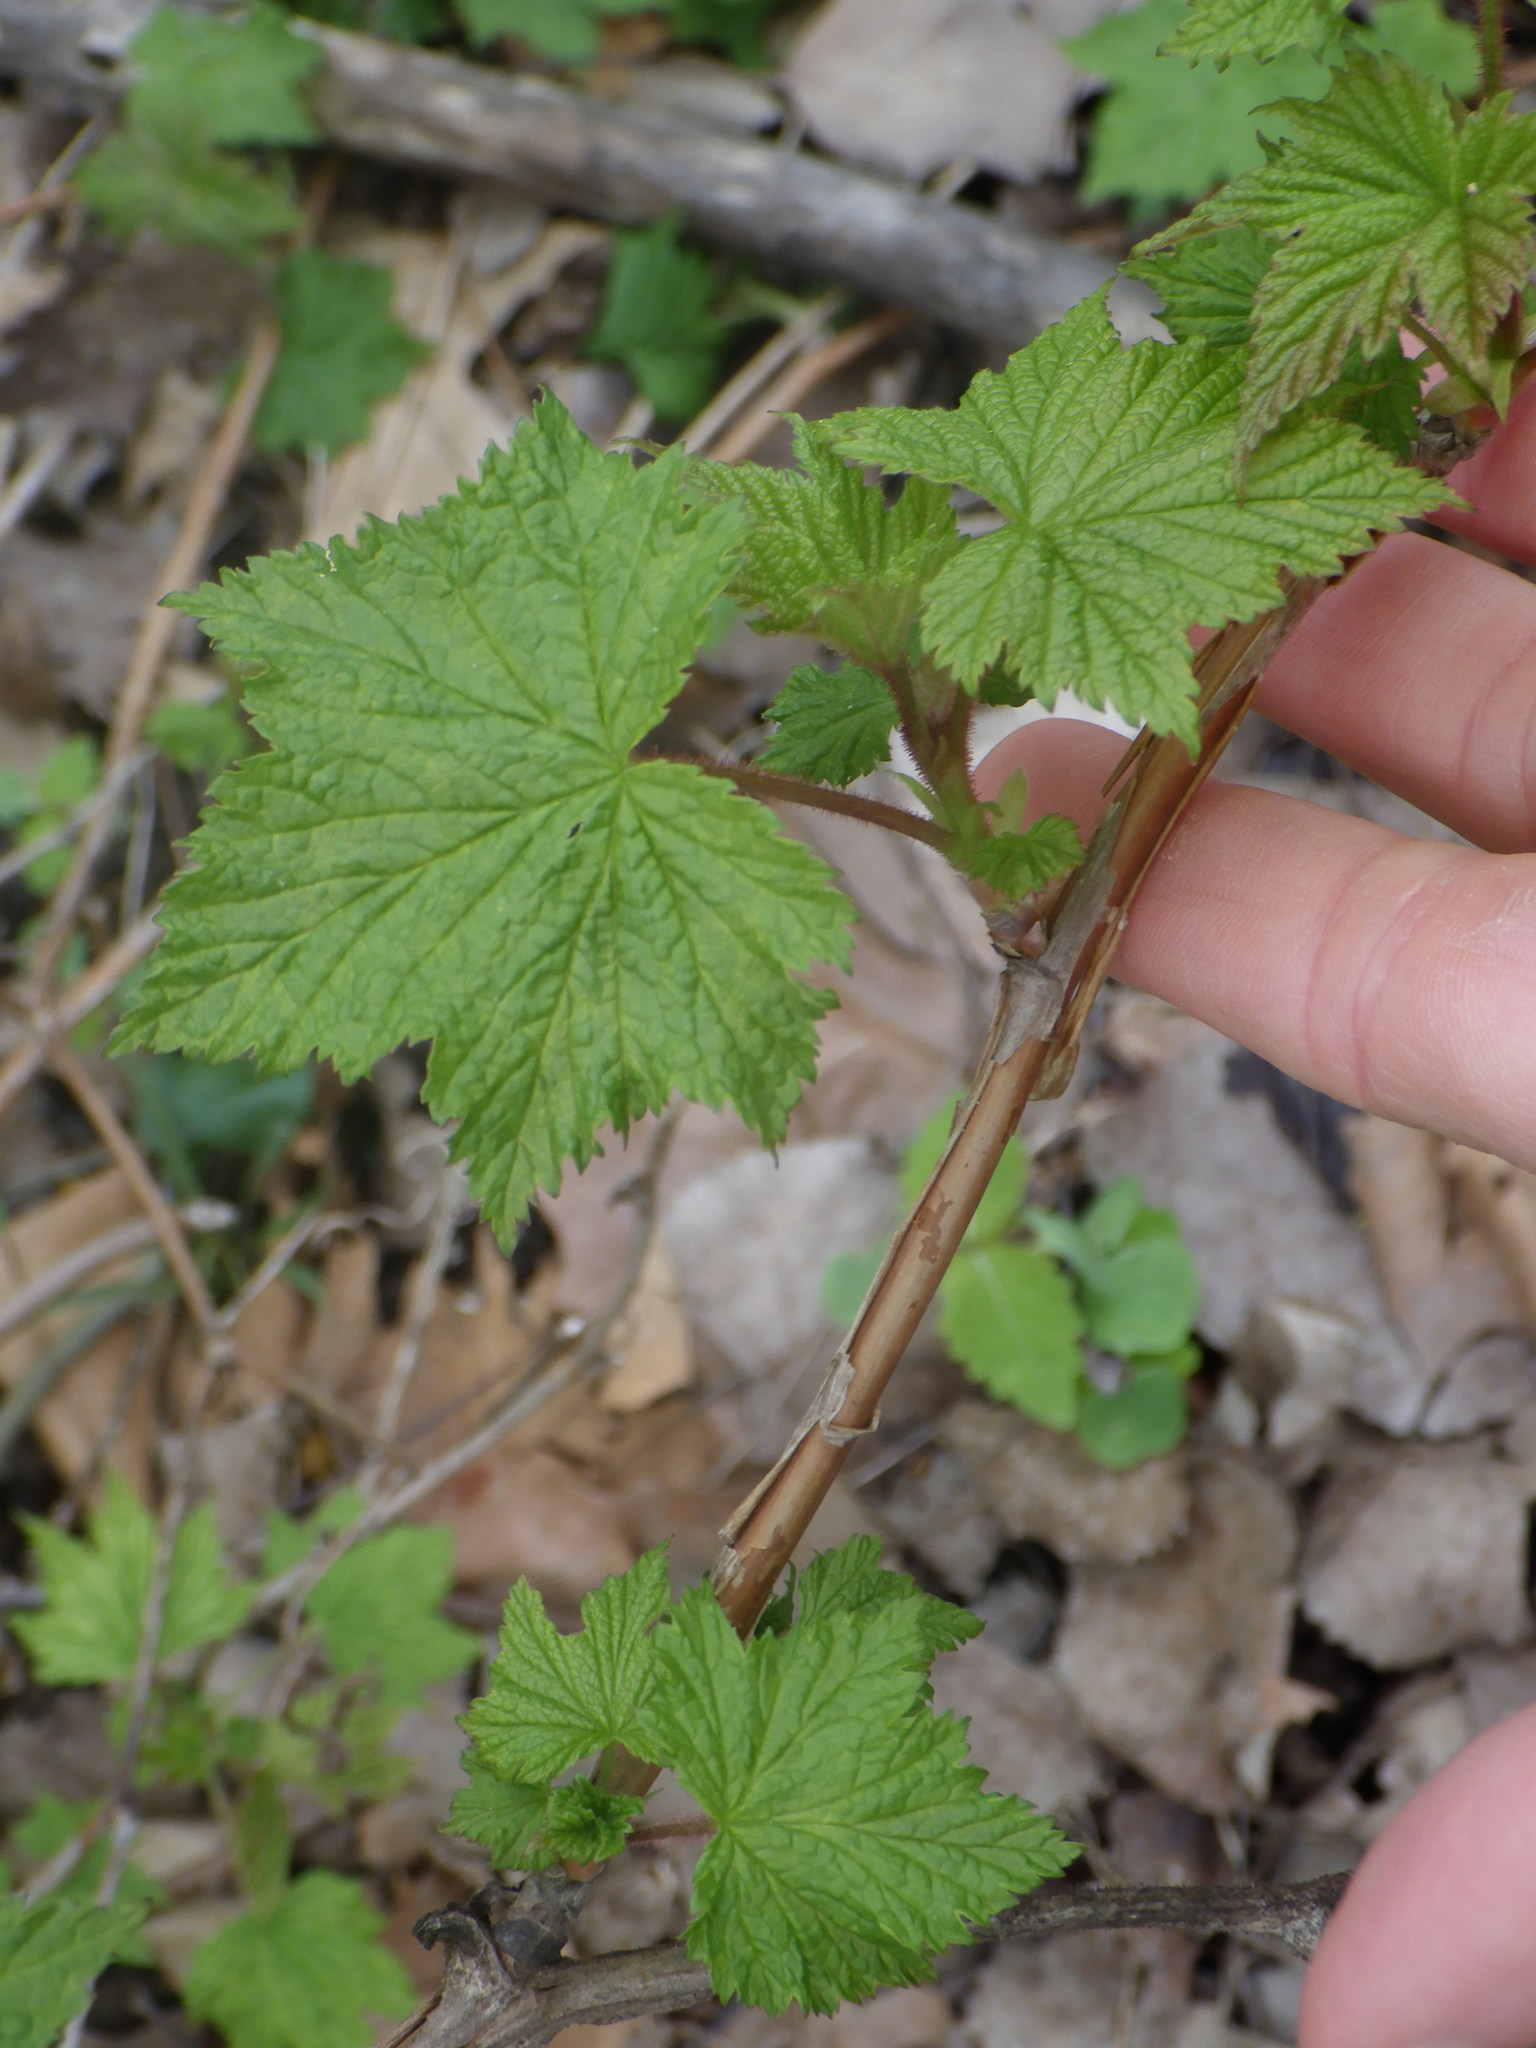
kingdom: Plantae
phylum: Tracheophyta
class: Magnoliopsida
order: Rosales
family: Rosaceae
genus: Rubus
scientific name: Rubus odoratus
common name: Purple-flowered raspberry
